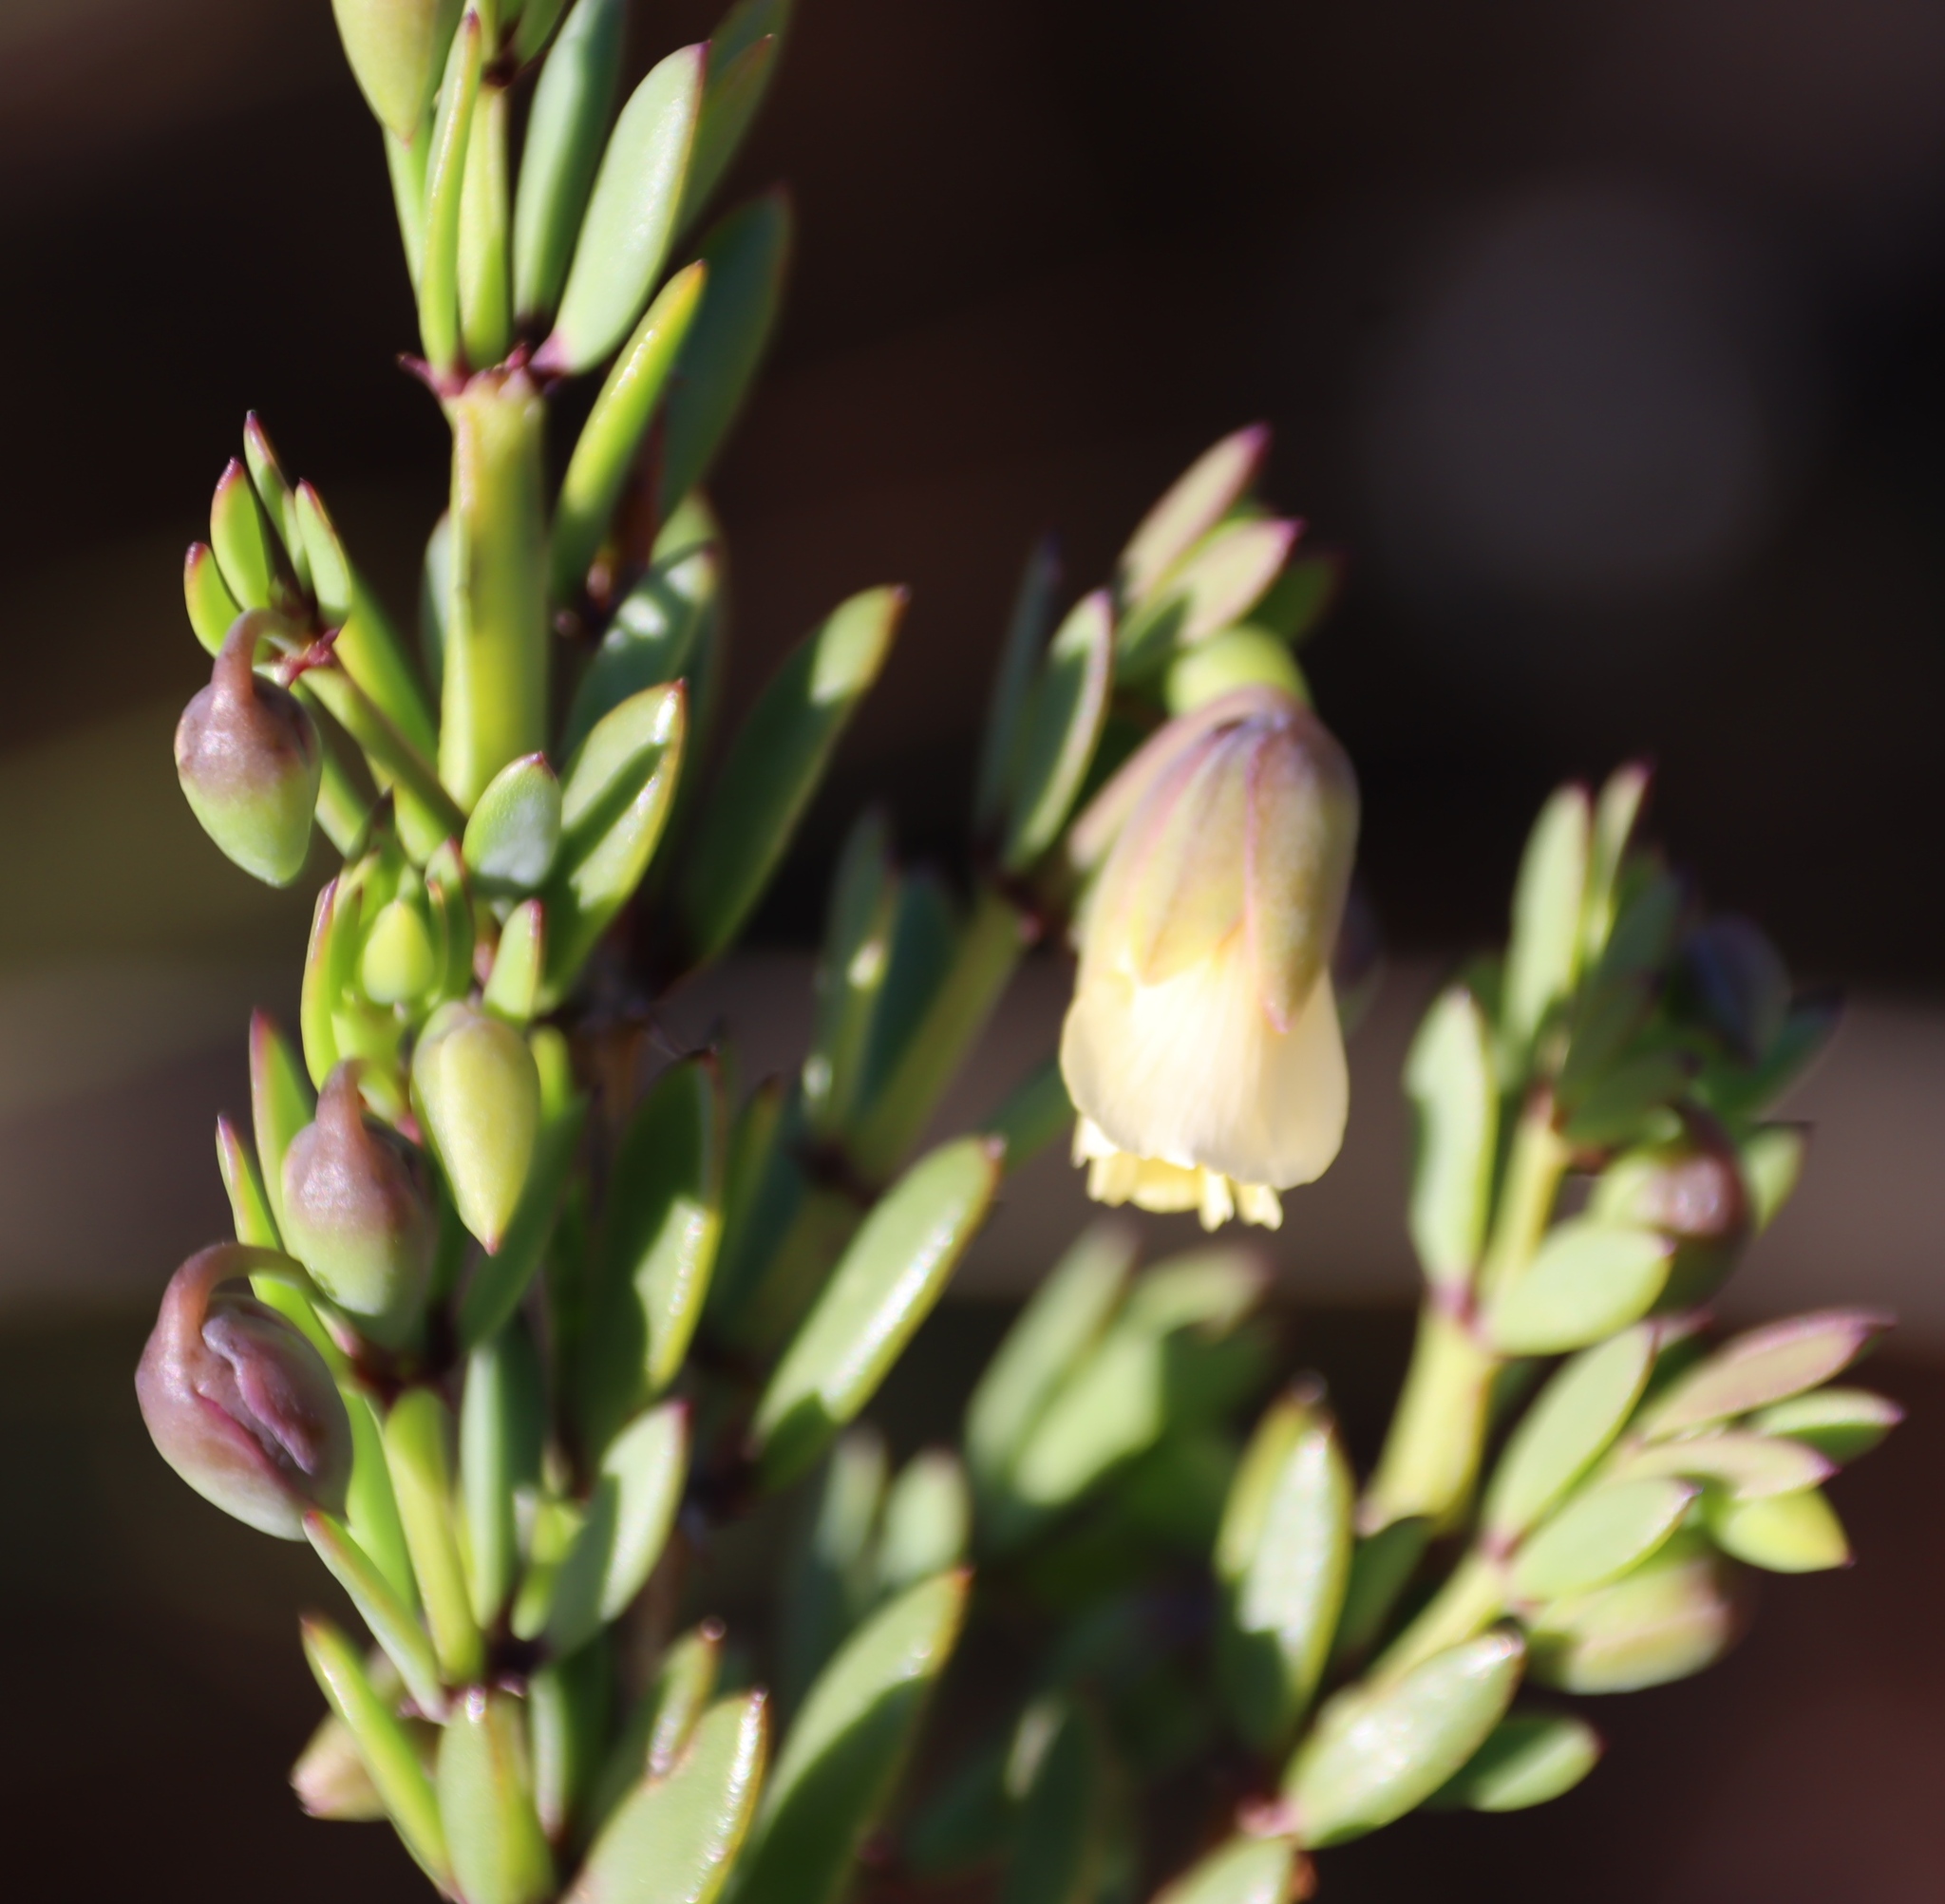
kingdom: Plantae
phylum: Tracheophyta
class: Magnoliopsida
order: Zygophyllales
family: Zygophyllaceae
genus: Roepera
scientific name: Roepera fulva
